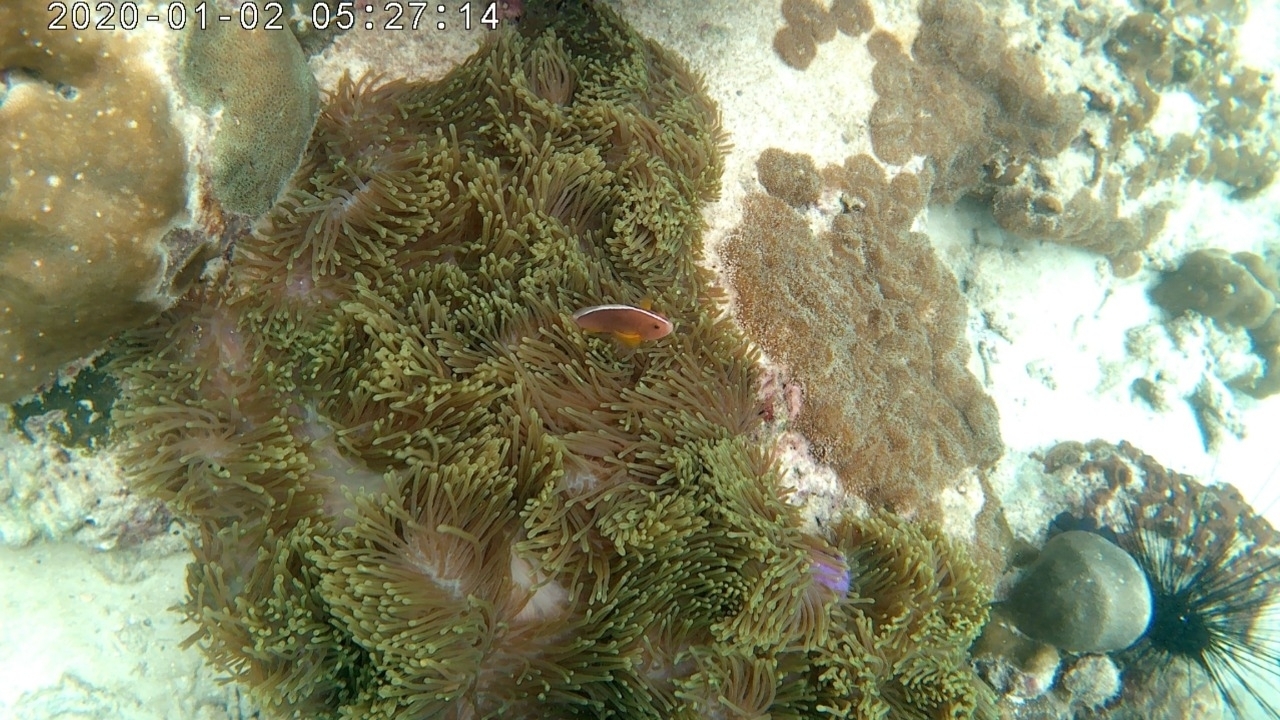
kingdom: Animalia
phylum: Chordata
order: Perciformes
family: Pomacentridae
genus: Amphiprion
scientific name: Amphiprion akallopisos
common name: Skunk clownfish
